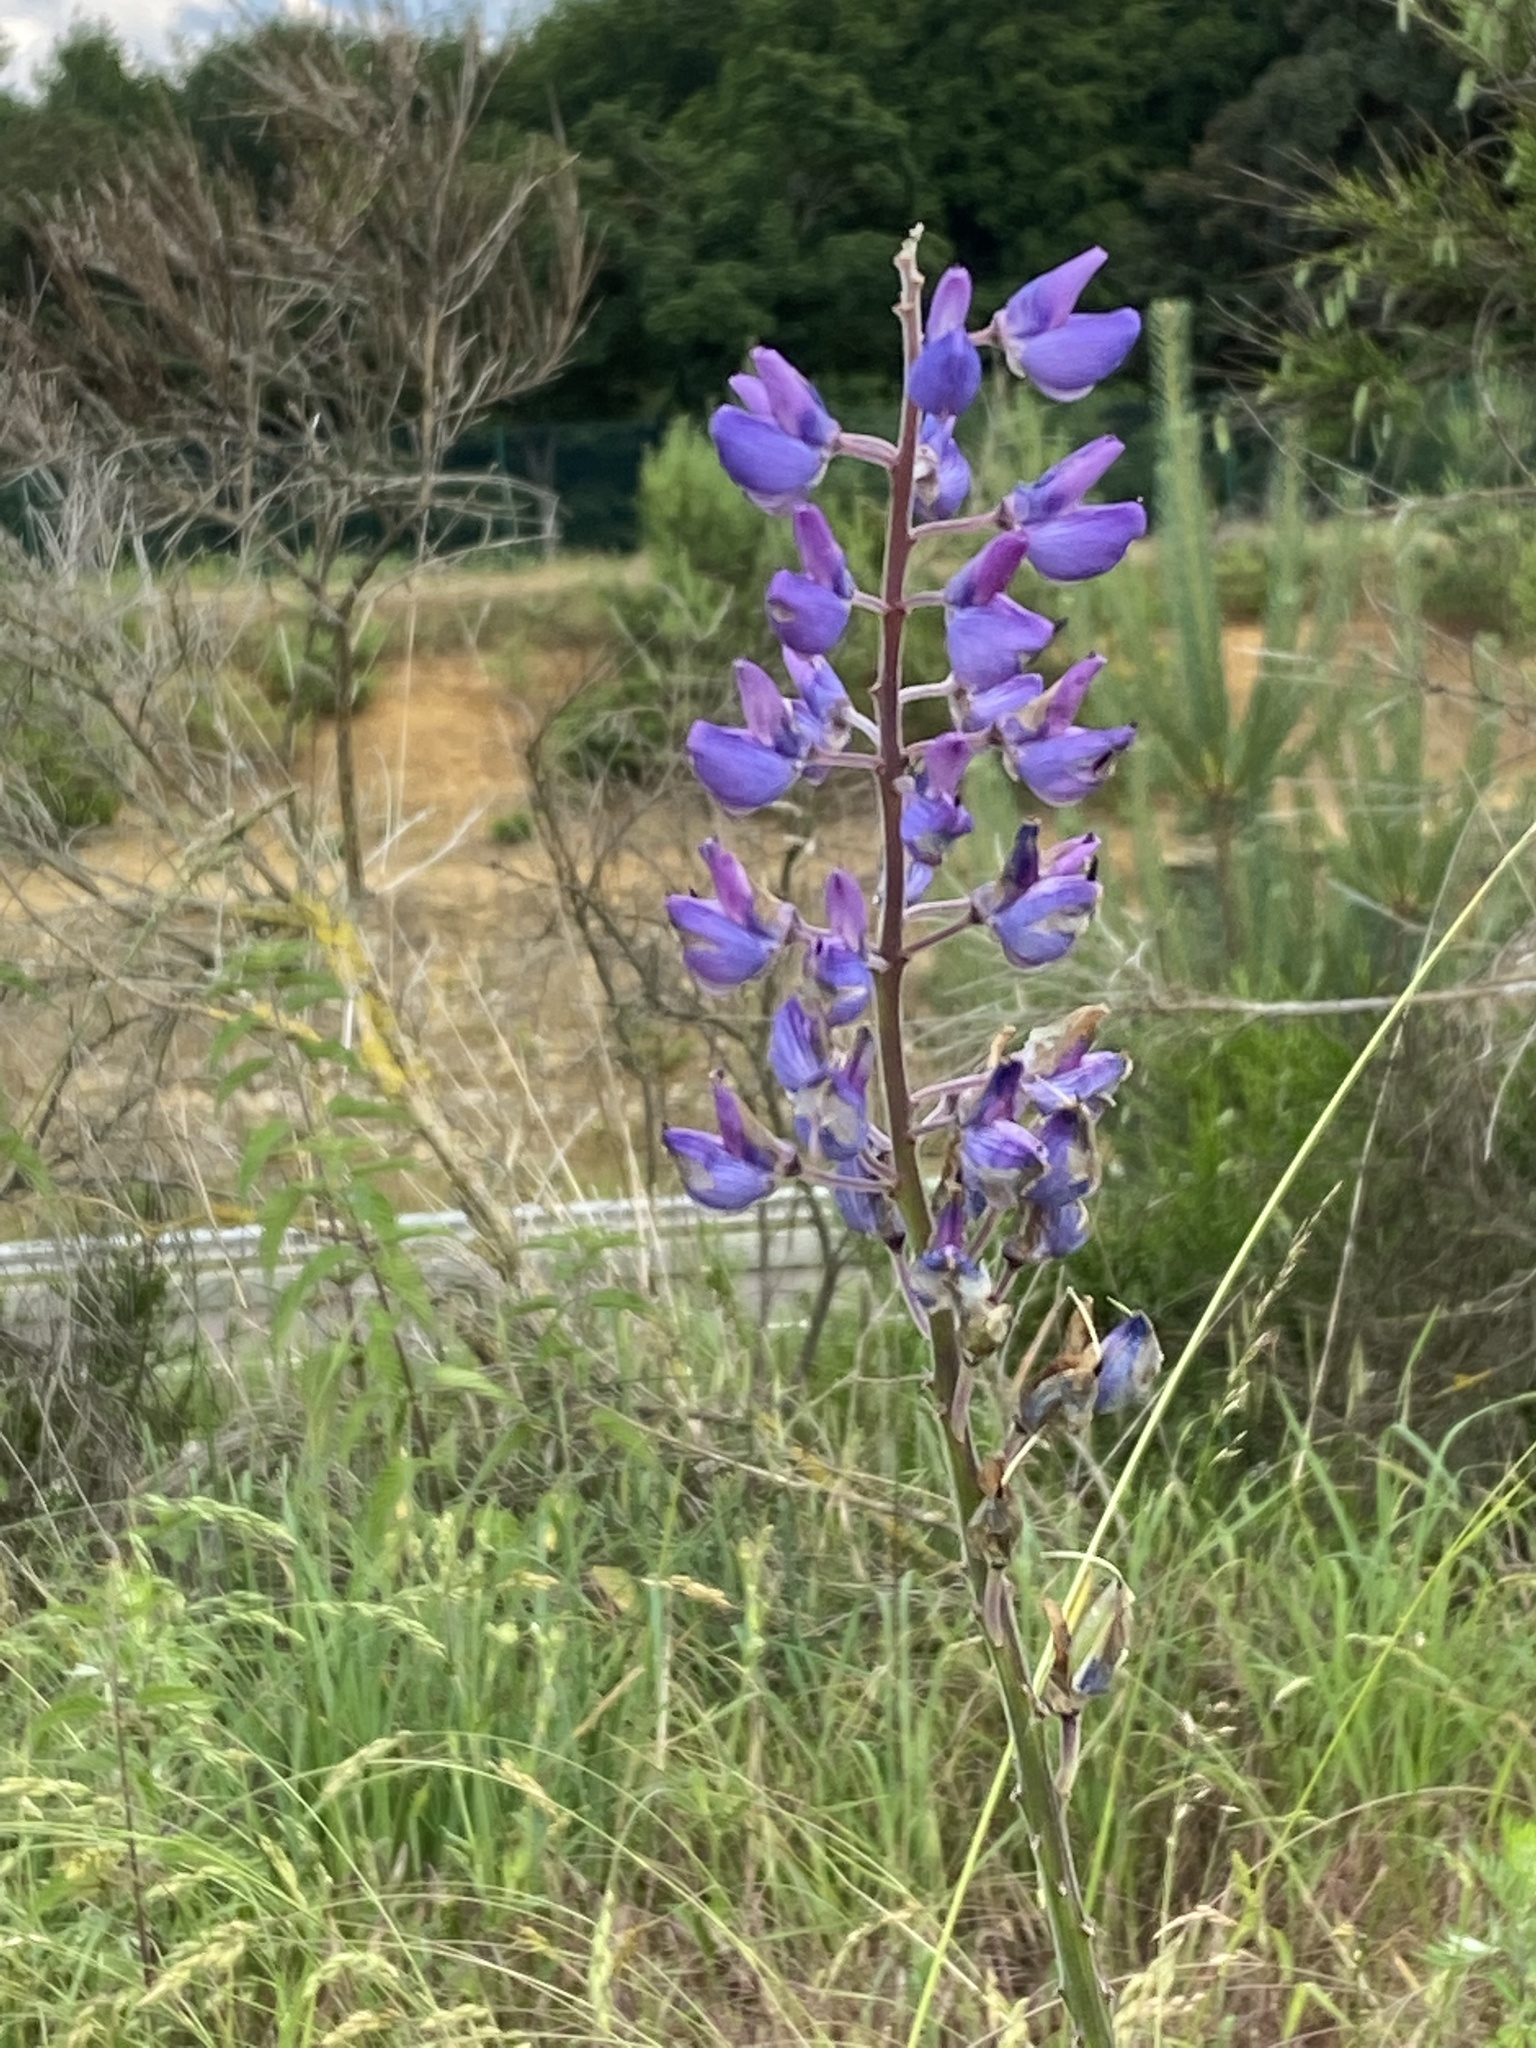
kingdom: Plantae
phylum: Tracheophyta
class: Magnoliopsida
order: Fabales
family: Fabaceae
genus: Lupinus
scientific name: Lupinus polyphyllus
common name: Garden lupin
